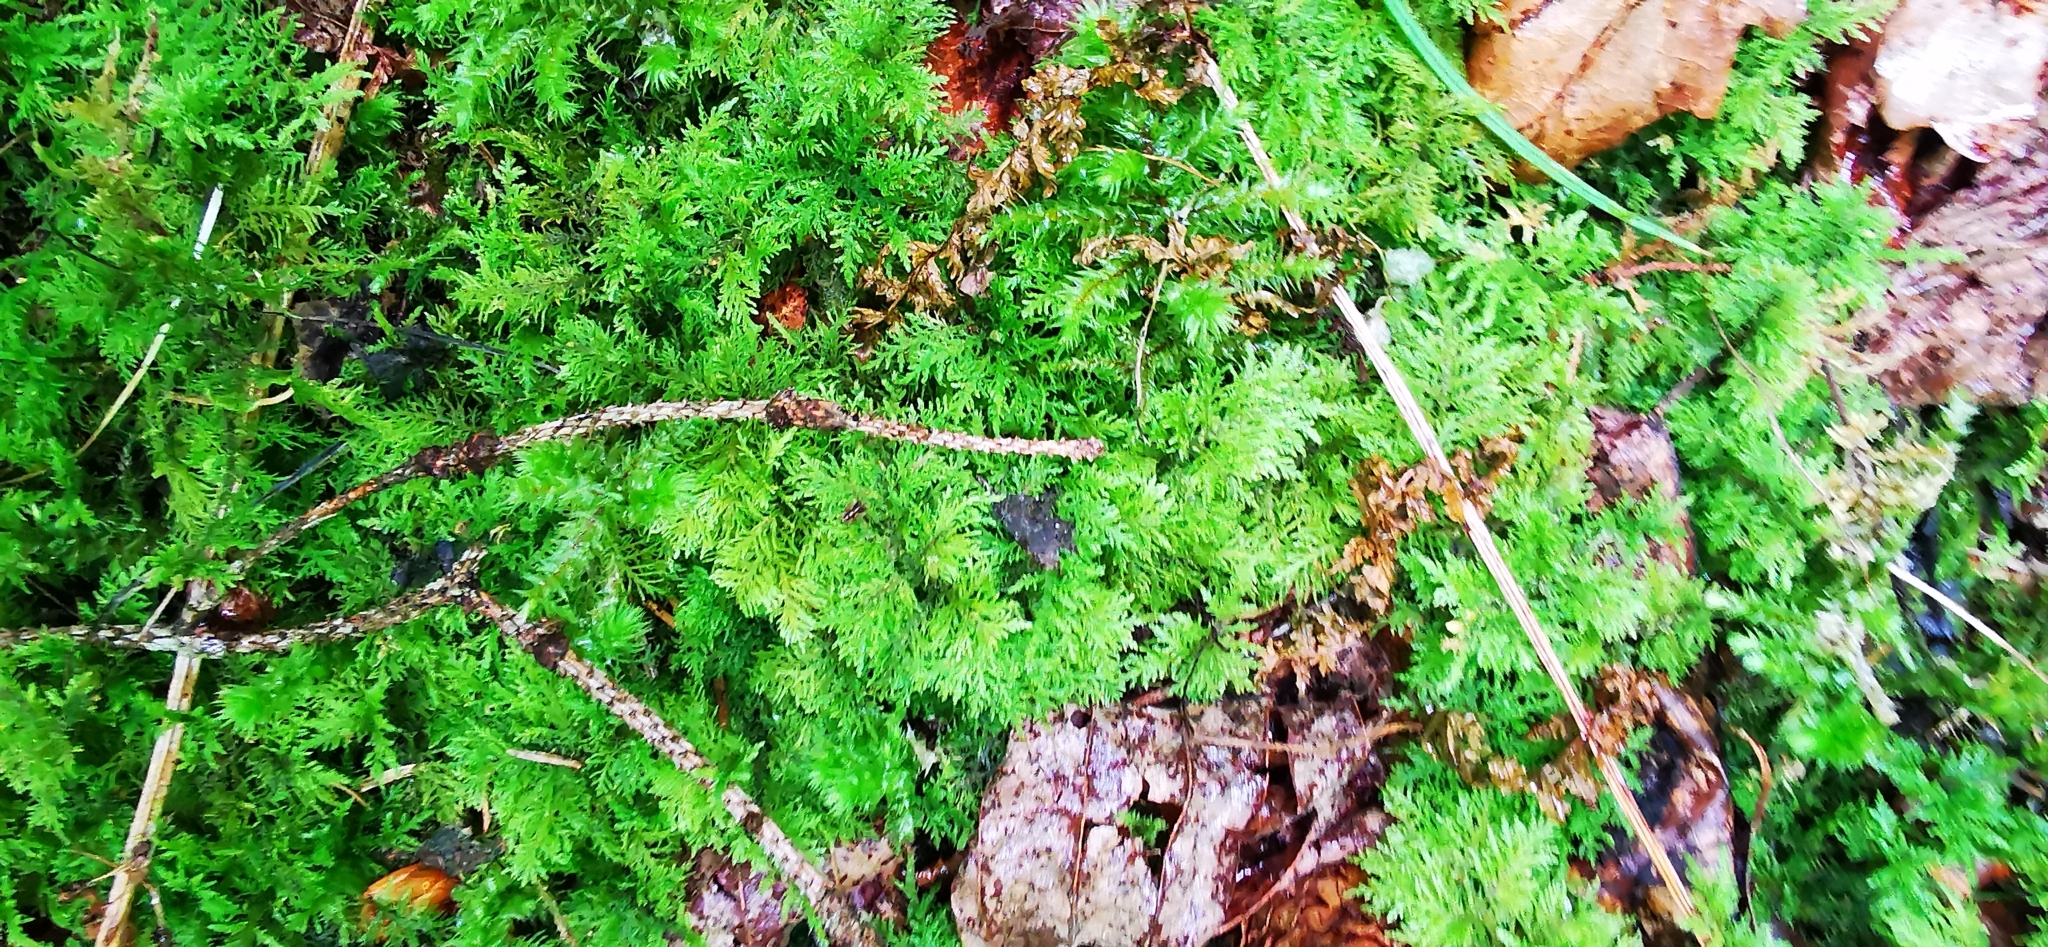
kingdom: Plantae
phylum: Bryophyta
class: Bryopsida
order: Hypnales
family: Thuidiaceae
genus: Thuidium
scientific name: Thuidium tamariscinum
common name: Common tamarisk-moss
